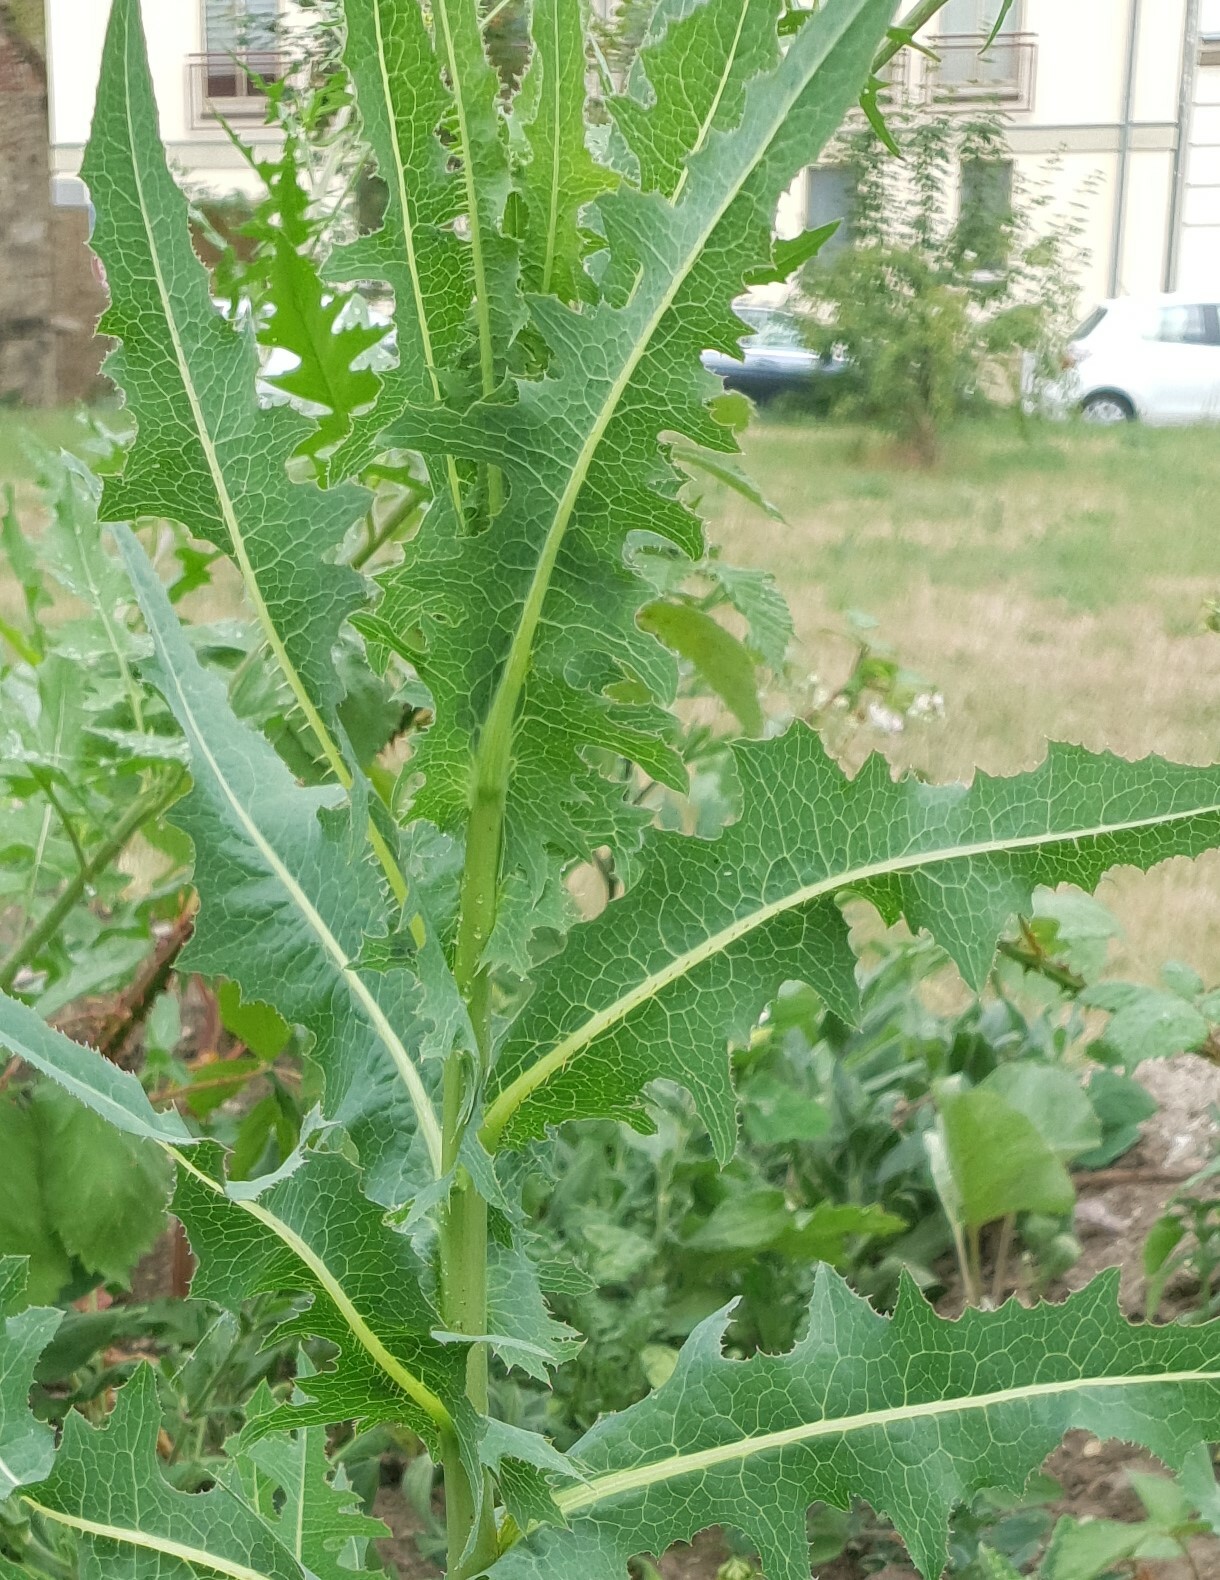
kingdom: Plantae
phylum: Tracheophyta
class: Magnoliopsida
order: Asterales
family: Asteraceae
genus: Lactuca
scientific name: Lactuca serriola
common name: Prickly lettuce
